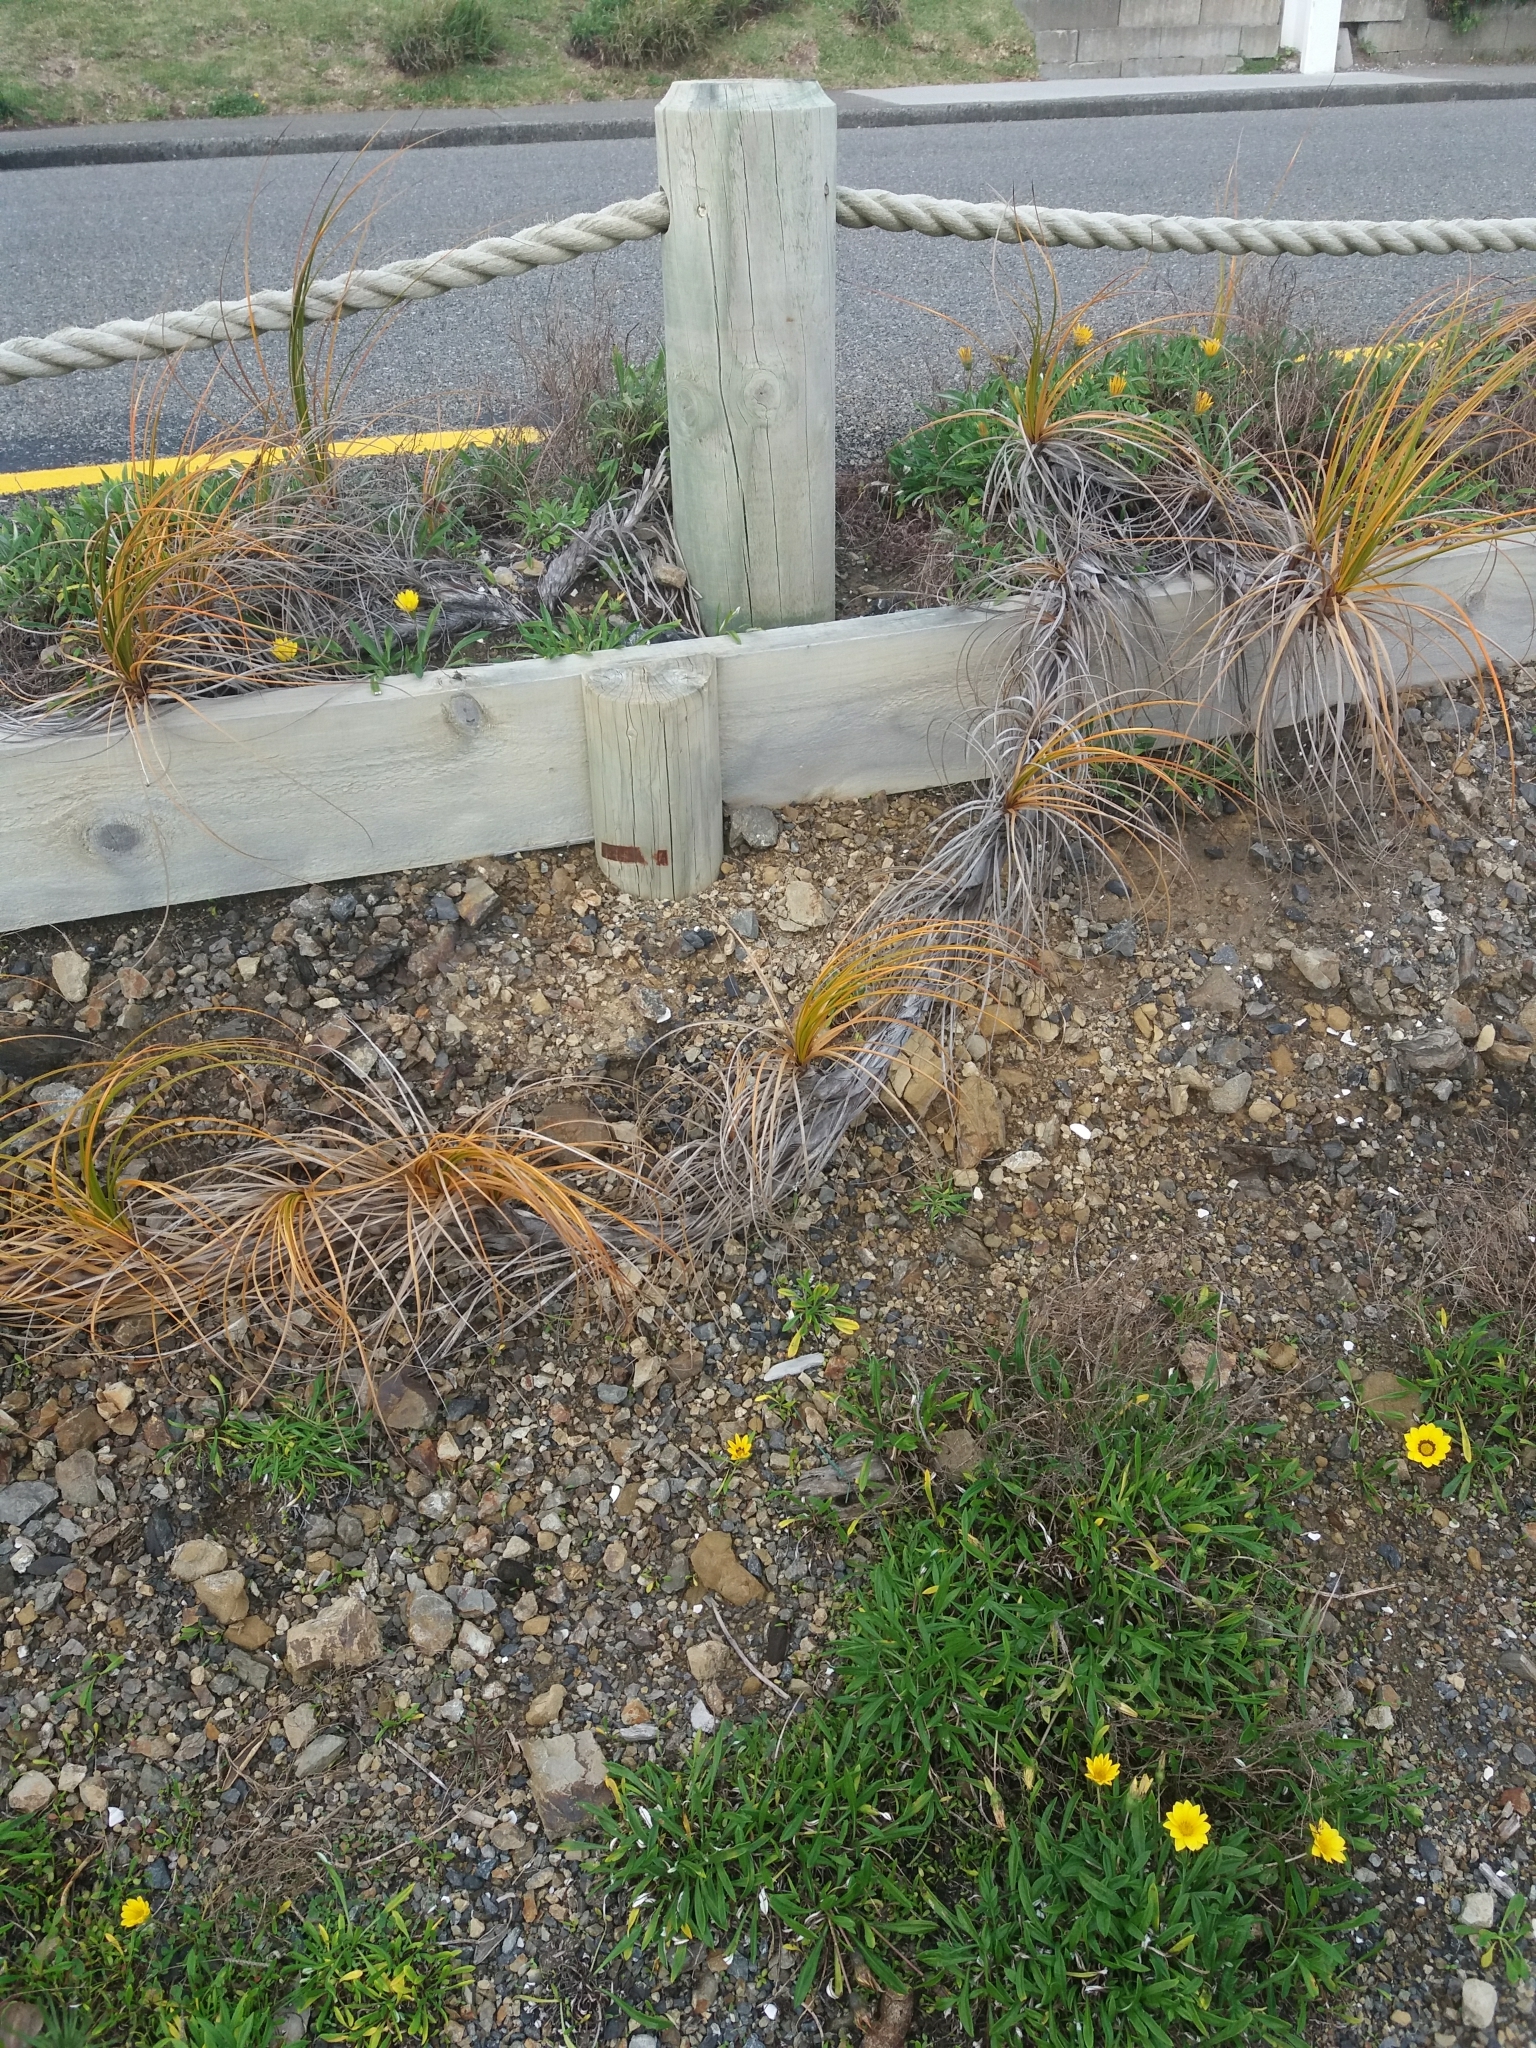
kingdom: Plantae
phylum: Tracheophyta
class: Liliopsida
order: Poales
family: Cyperaceae
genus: Ficinia
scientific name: Ficinia spiralis
